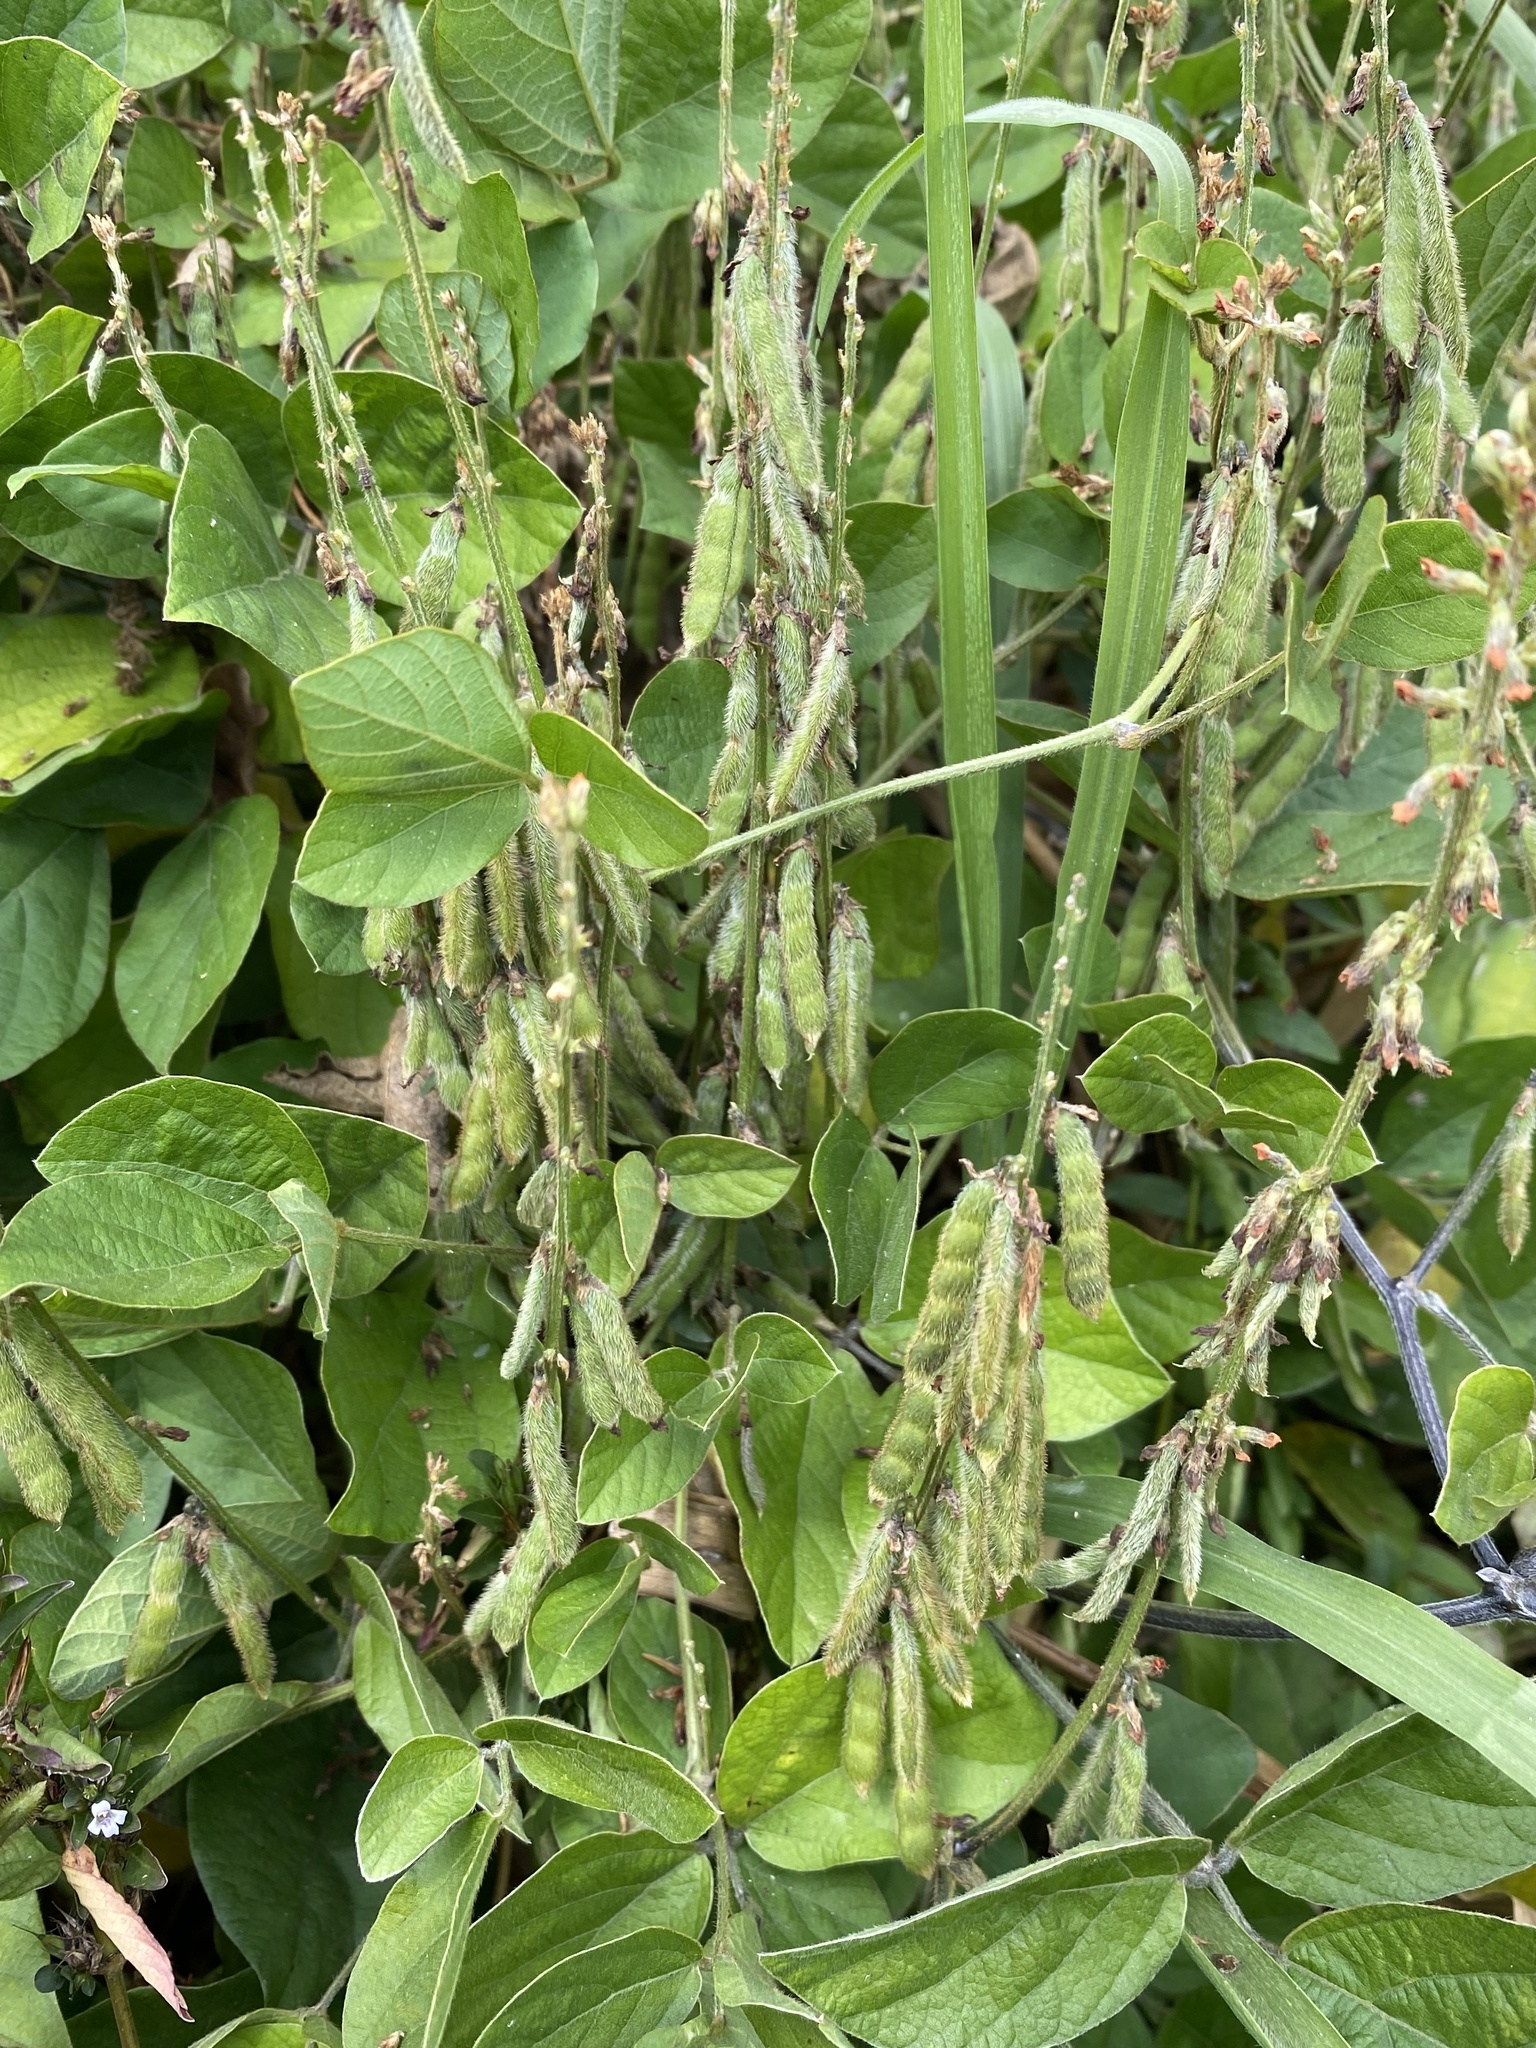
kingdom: Plantae
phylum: Tracheophyta
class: Magnoliopsida
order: Fabales
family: Fabaceae
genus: Neonotonia
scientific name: Neonotonia wightii
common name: Perennial soybean
